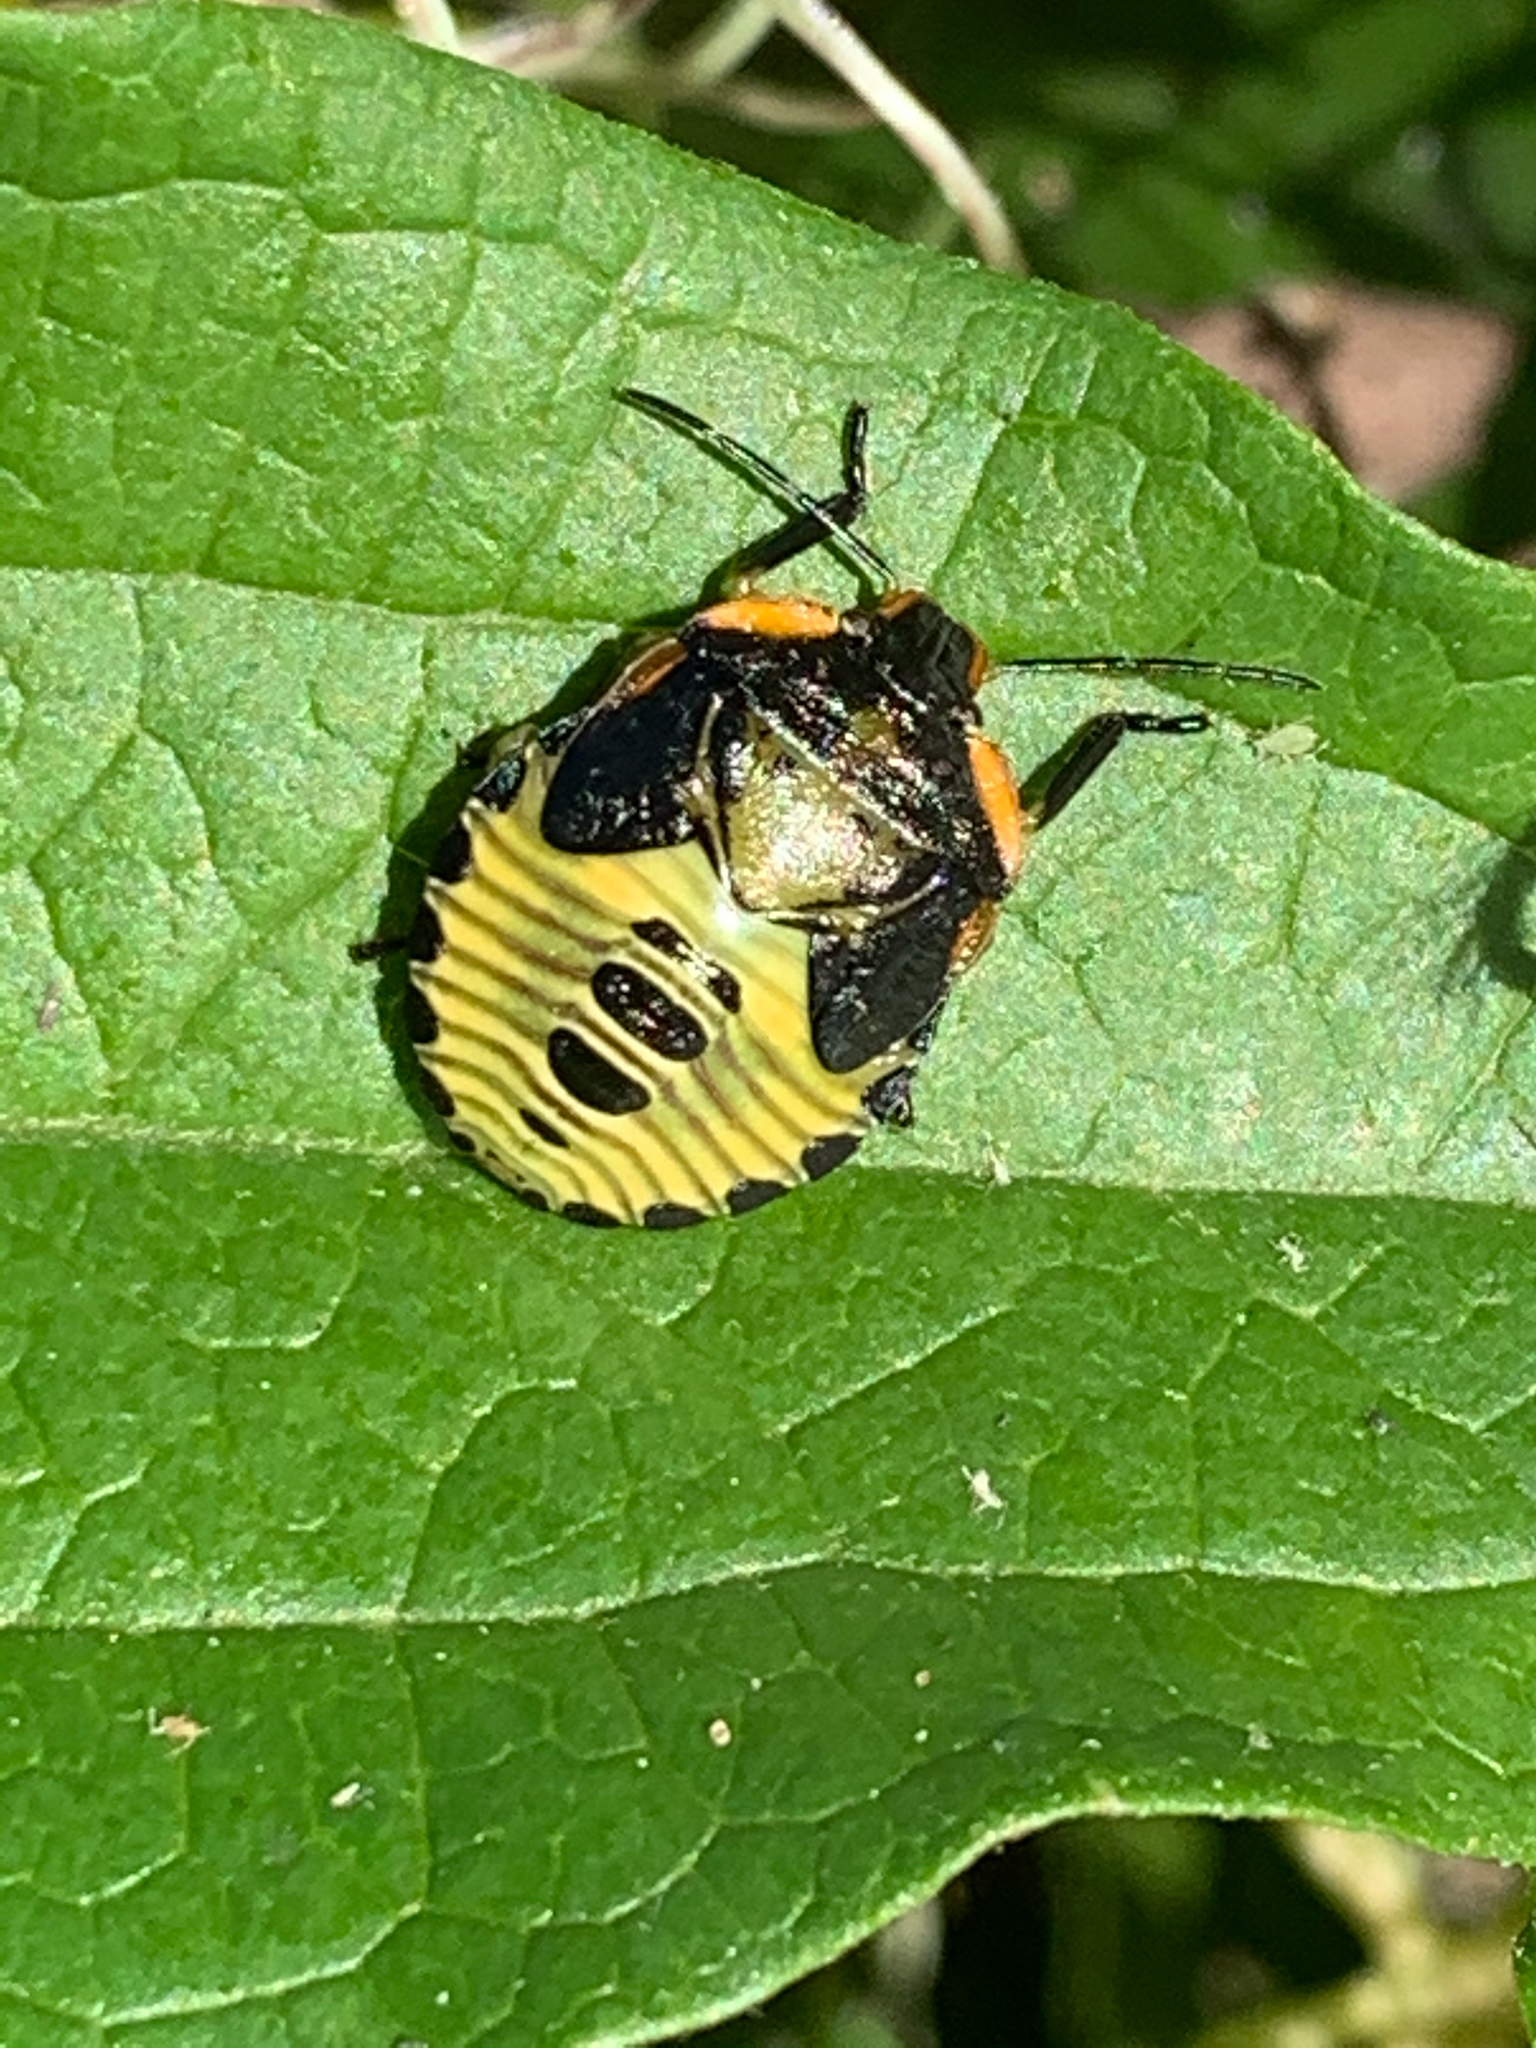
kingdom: Animalia
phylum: Arthropoda
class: Insecta
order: Hemiptera
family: Pentatomidae
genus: Chinavia
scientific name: Chinavia hilaris
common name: Green stink bug
